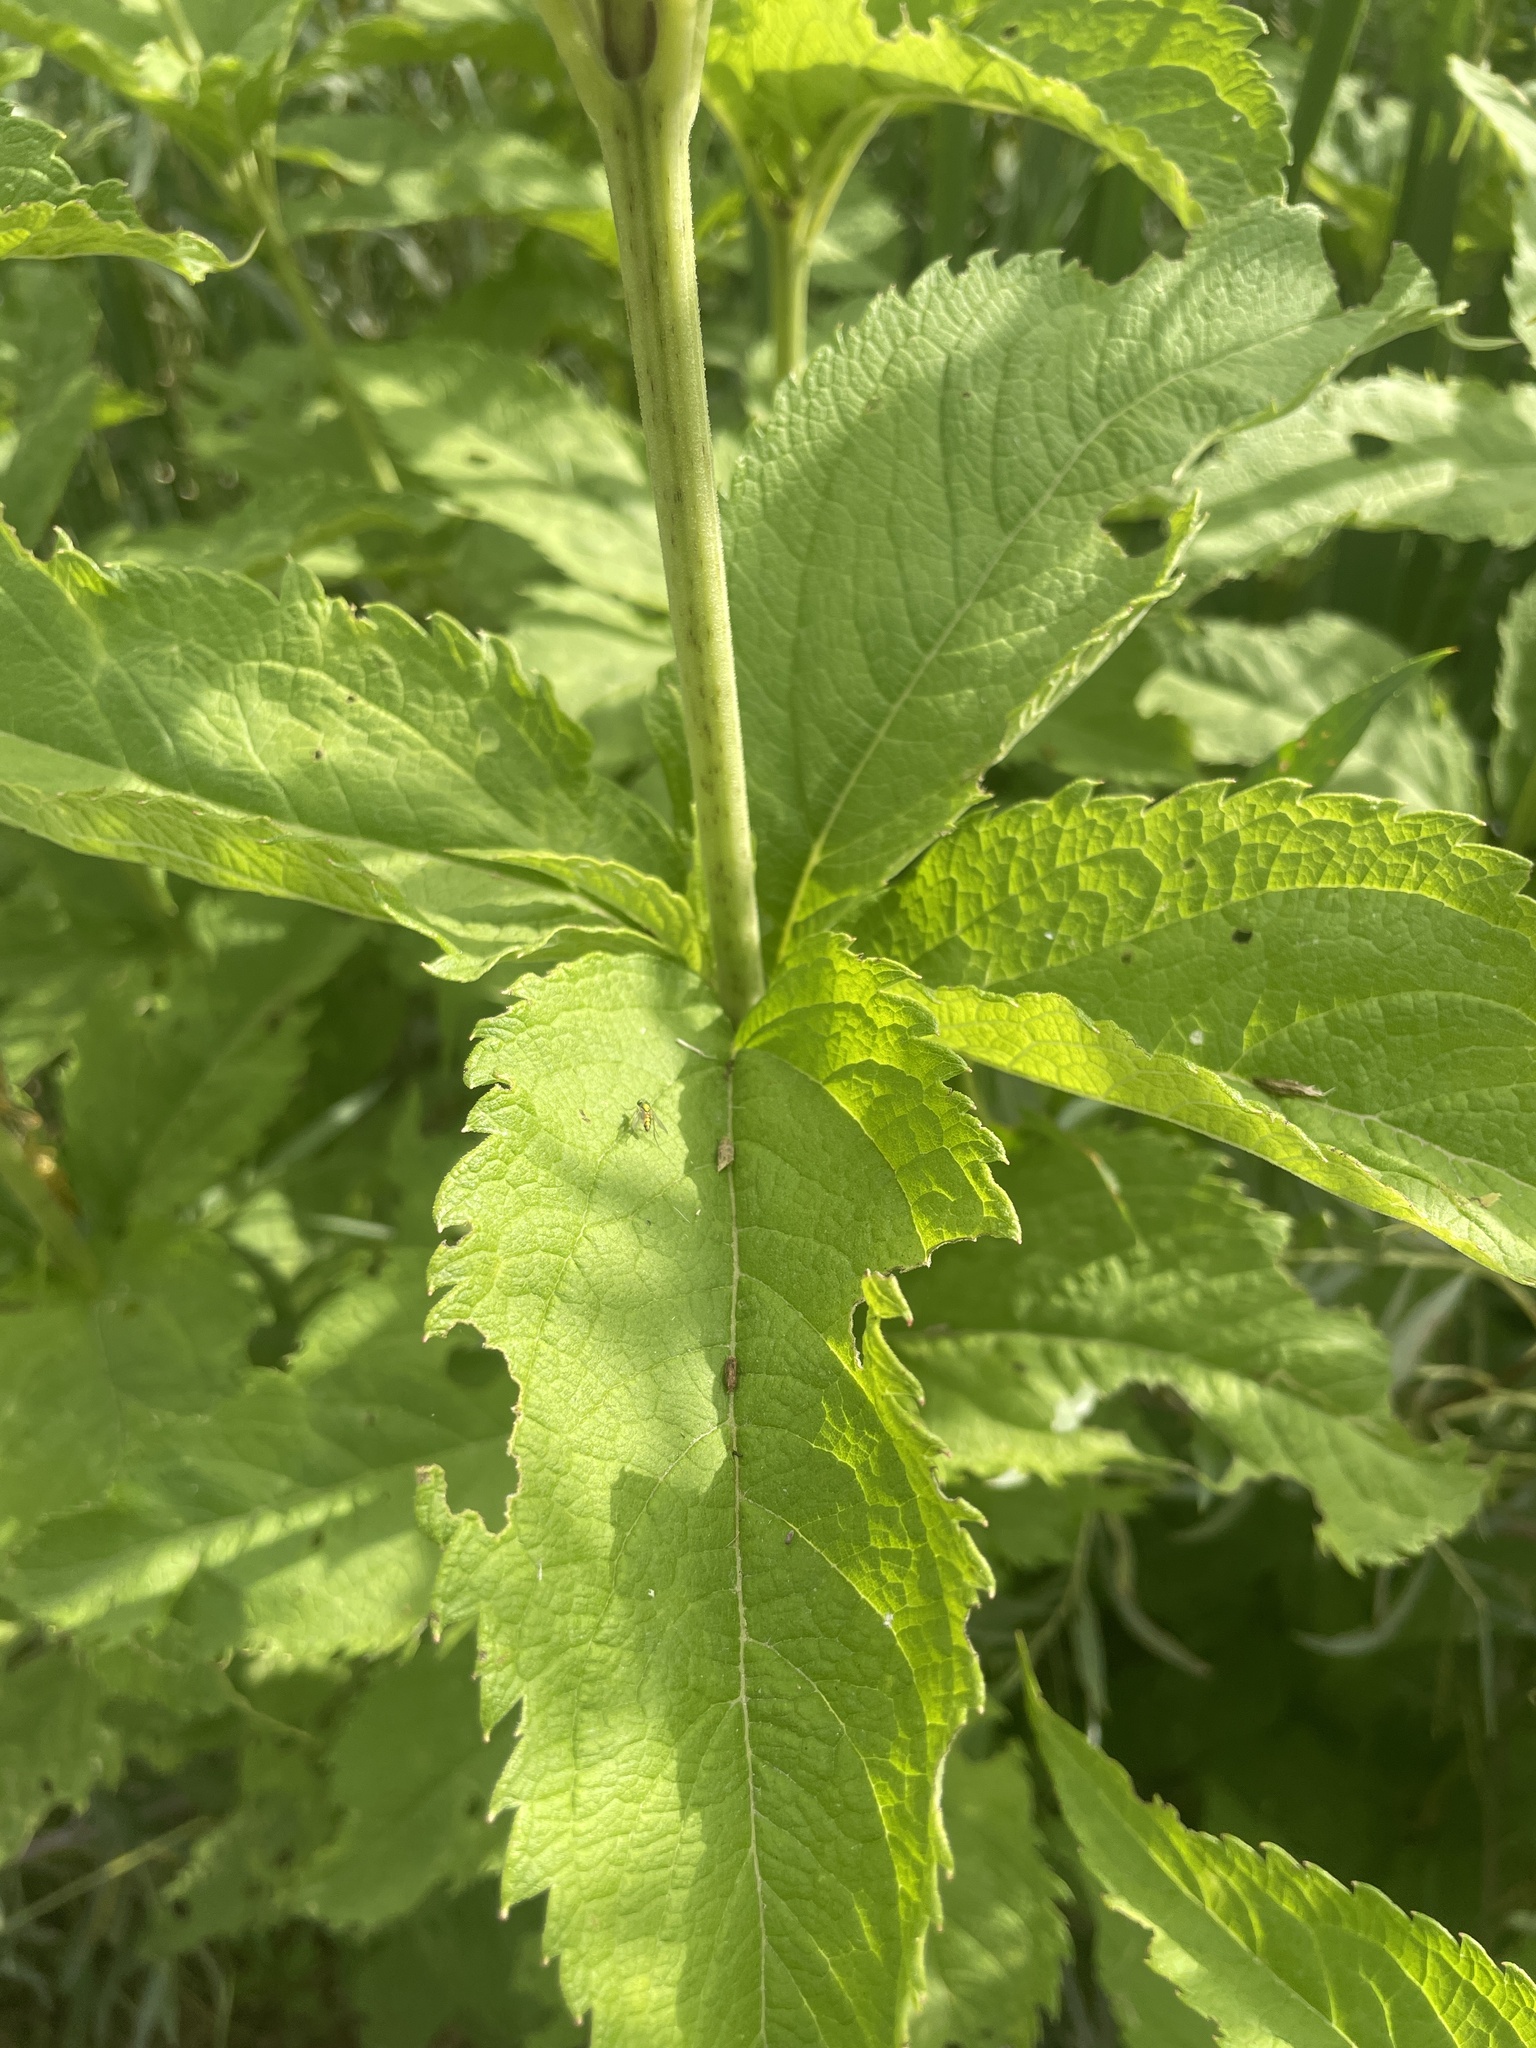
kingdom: Plantae
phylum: Tracheophyta
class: Magnoliopsida
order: Asterales
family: Asteraceae
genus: Eutrochium
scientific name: Eutrochium maculatum
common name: Spotted joe pye weed
